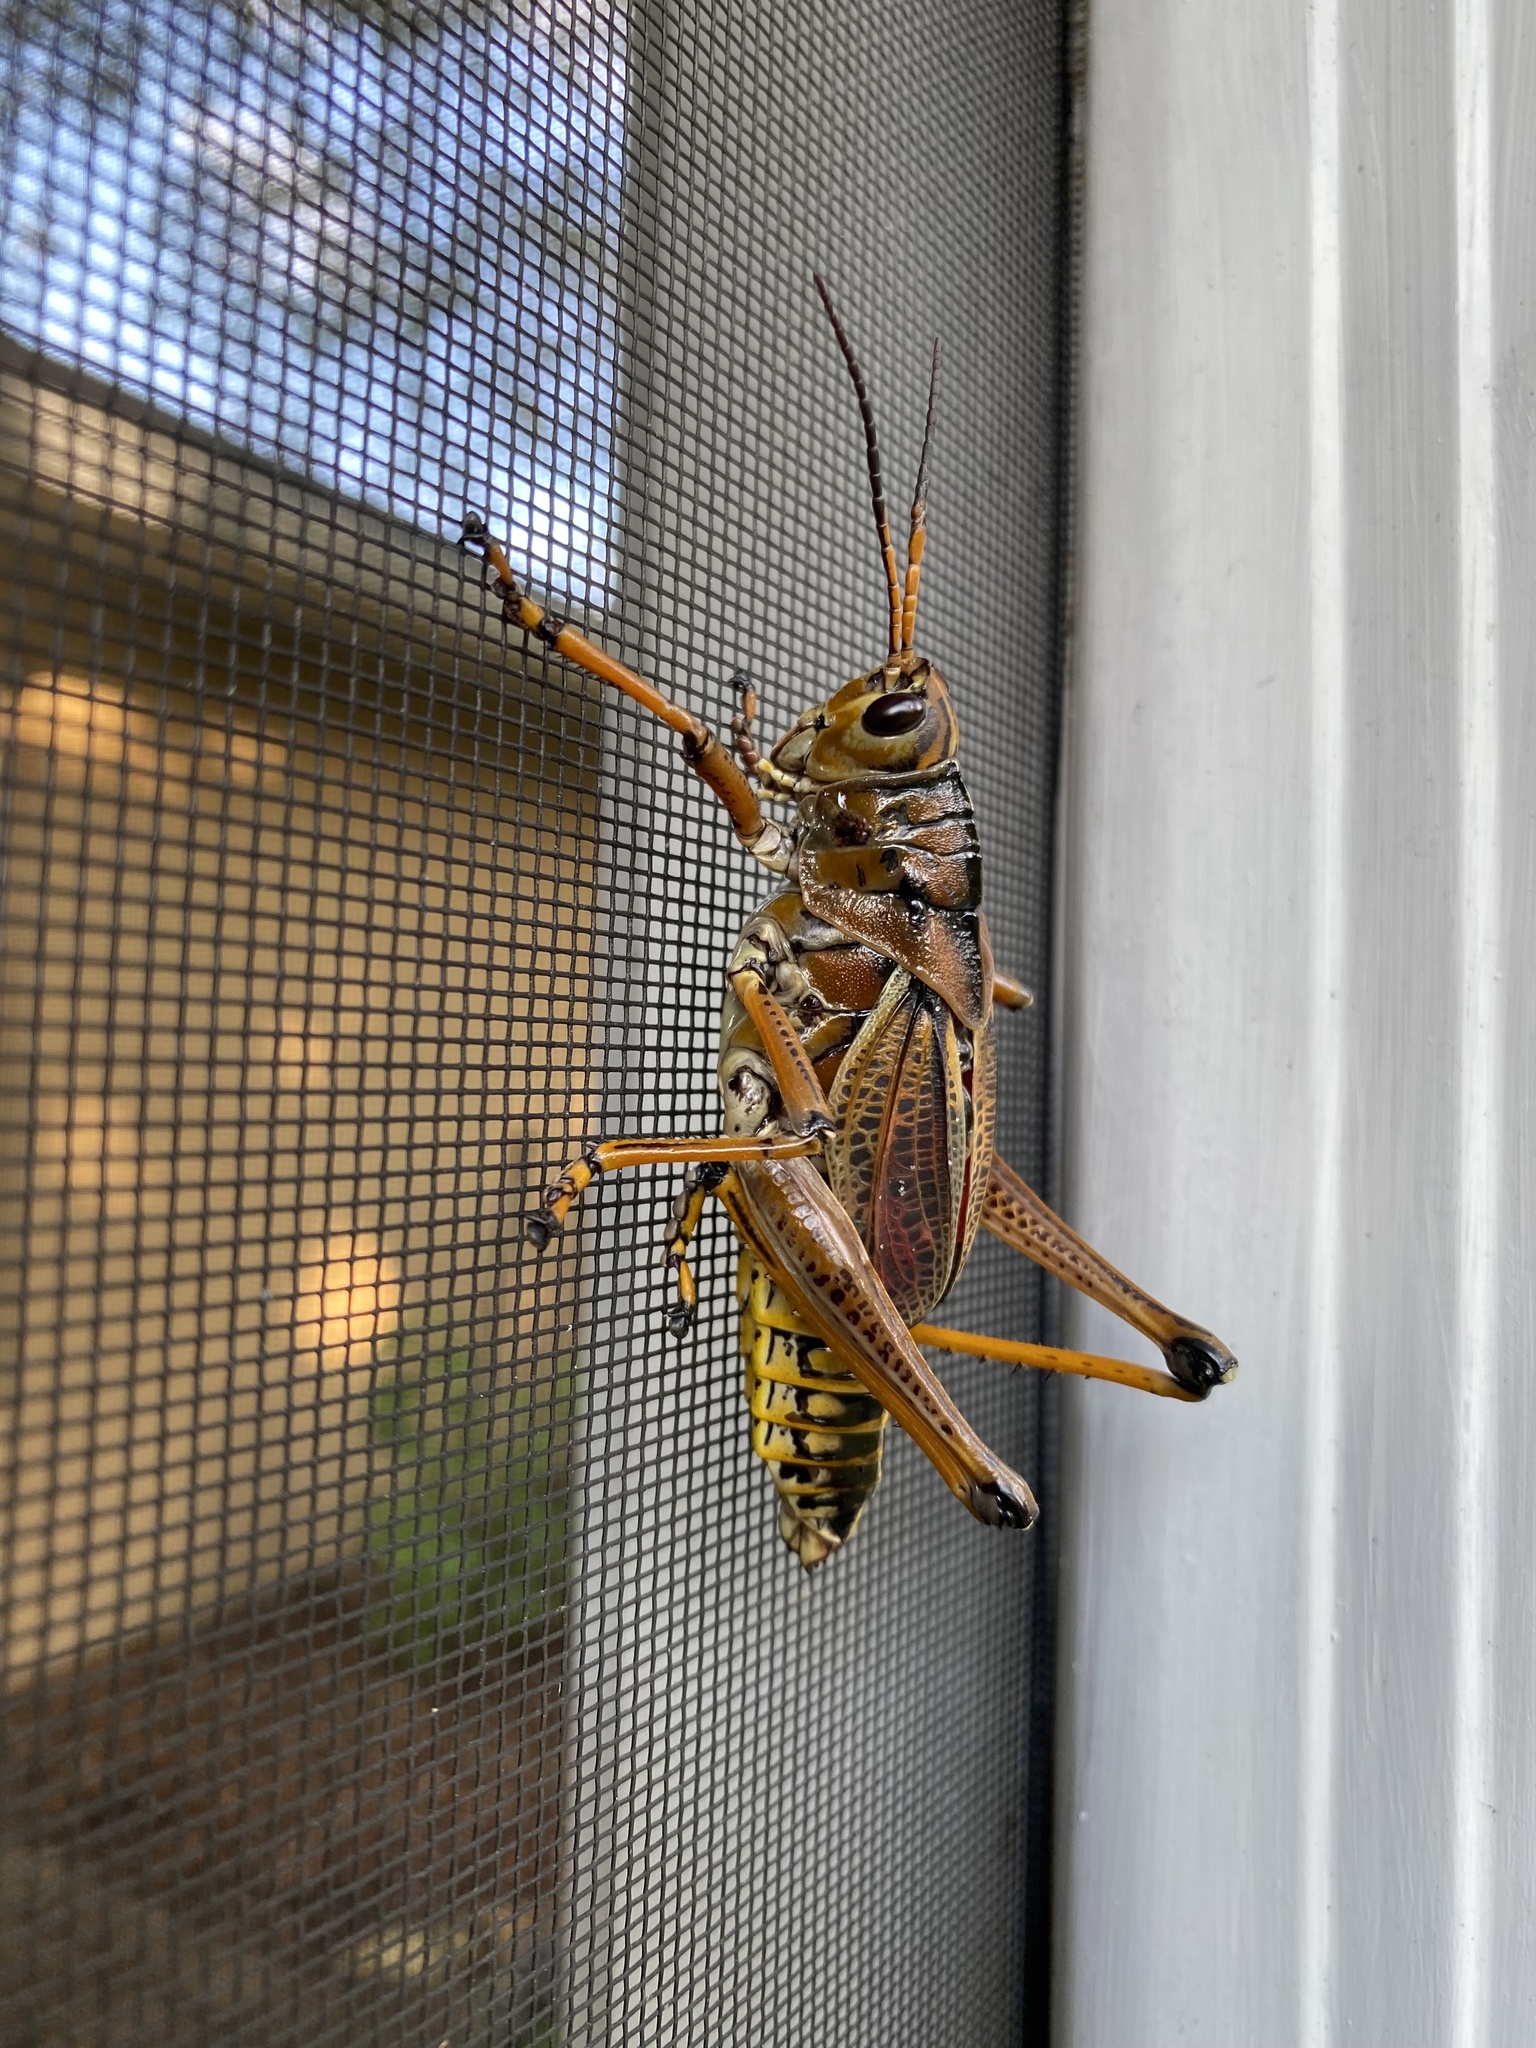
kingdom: Animalia
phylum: Arthropoda
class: Insecta
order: Orthoptera
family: Romaleidae
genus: Romalea
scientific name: Romalea microptera
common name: Eastern lubber grasshopper
